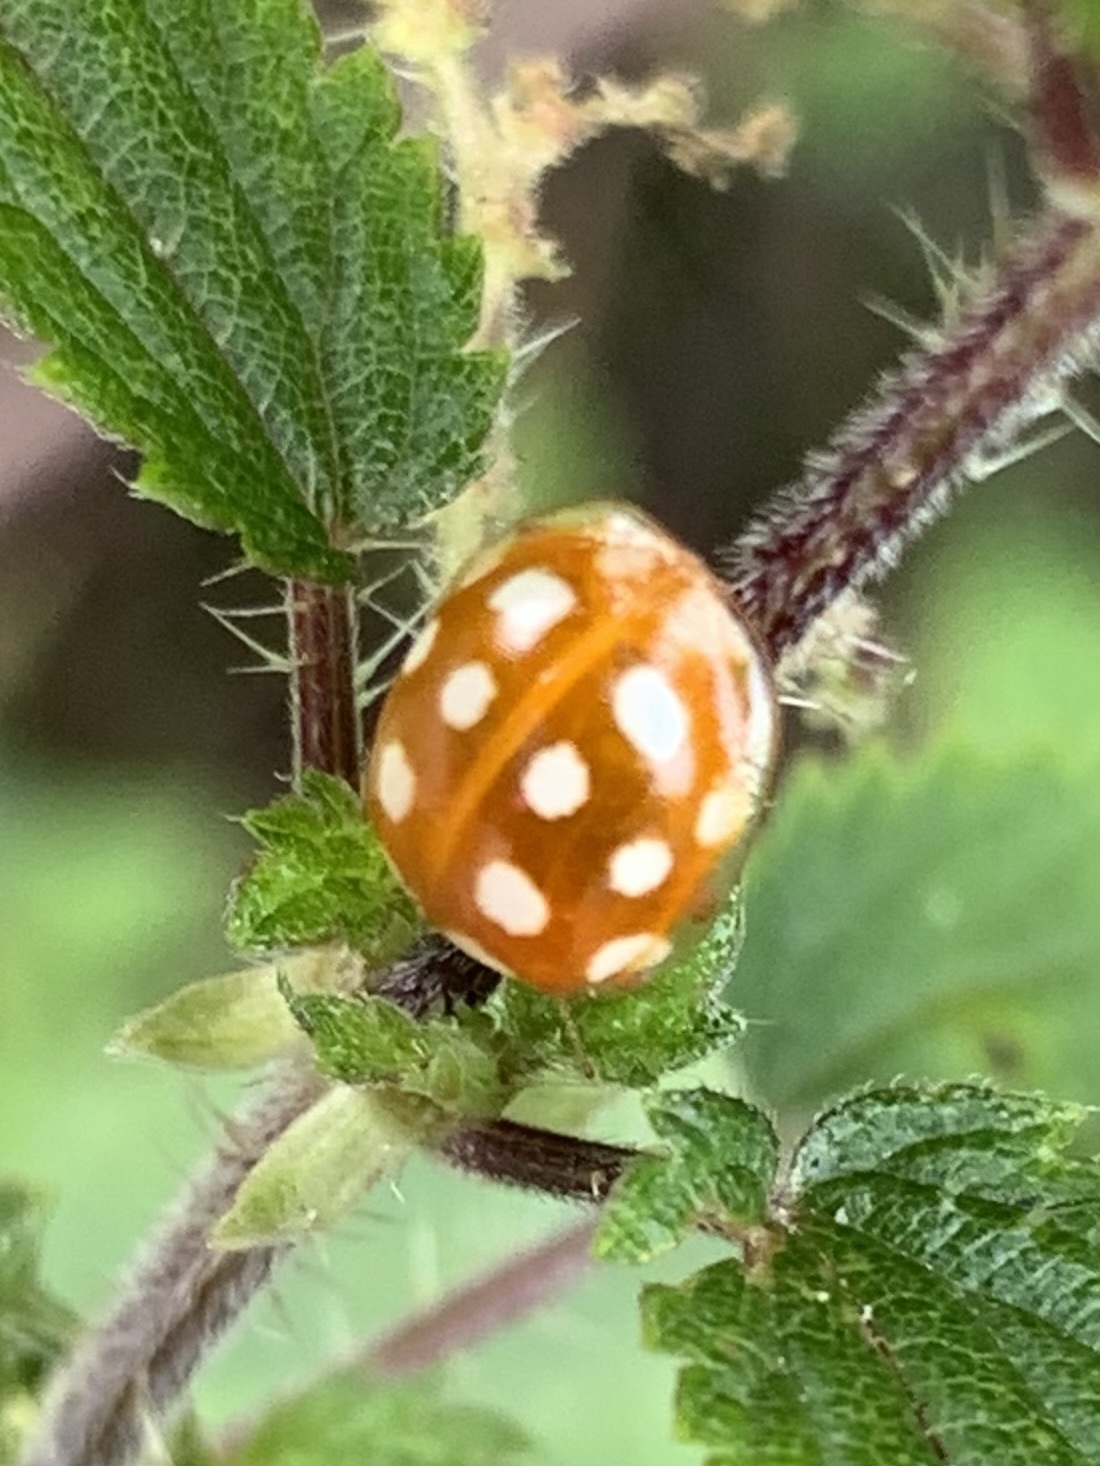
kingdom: Animalia
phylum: Arthropoda
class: Insecta
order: Coleoptera
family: Coccinellidae
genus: Halyzia
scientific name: Halyzia sedecimguttata
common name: Orange ladybird
